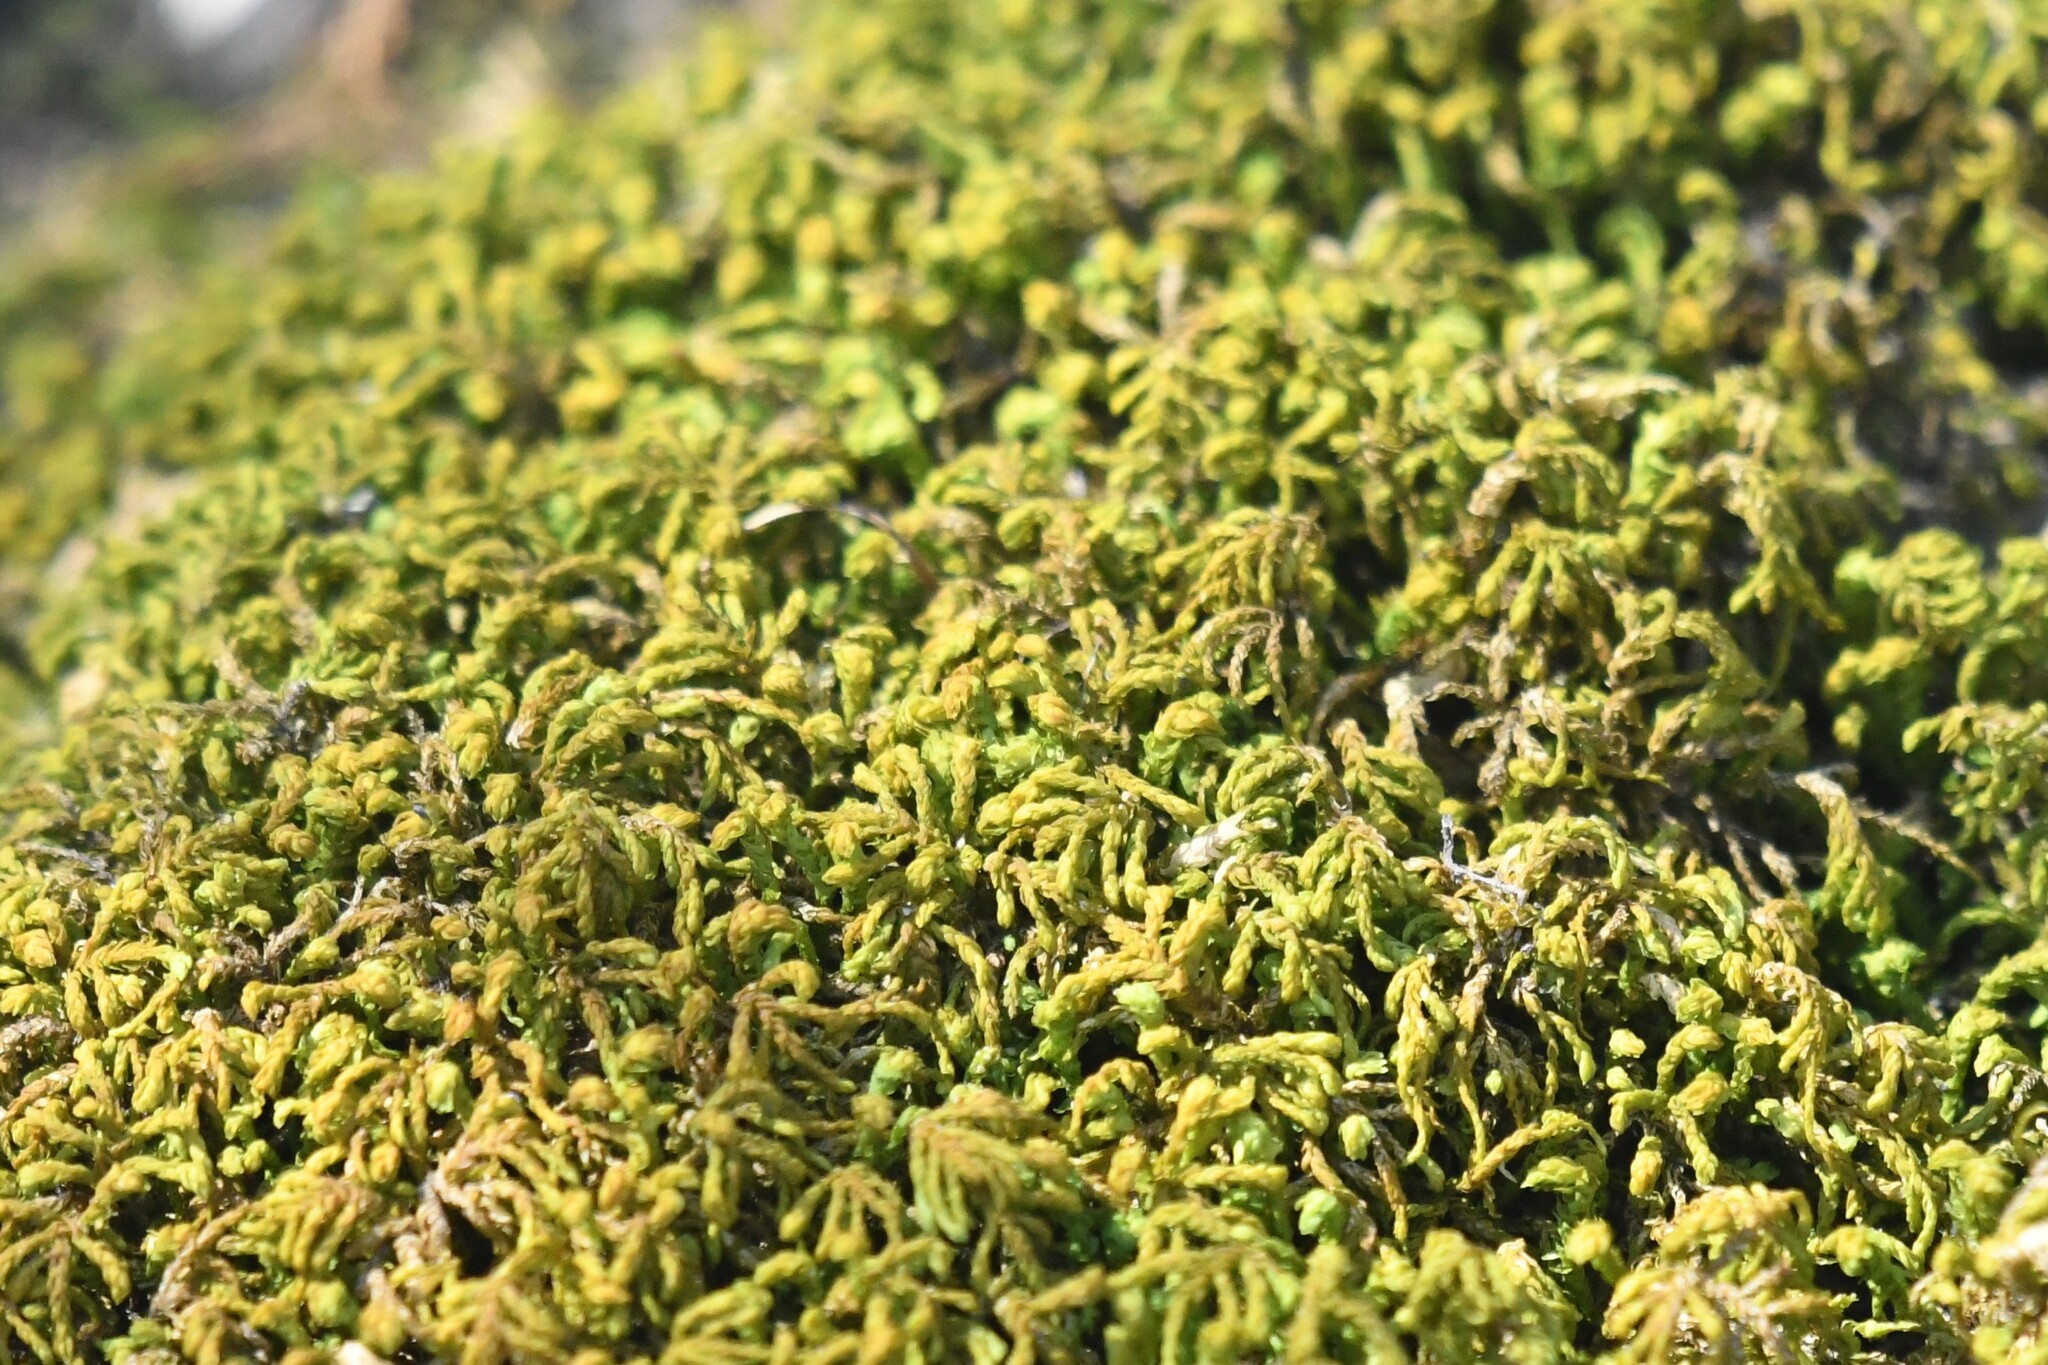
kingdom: Plantae
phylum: Bryophyta
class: Bryopsida
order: Hypnales
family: Neckeraceae
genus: Pseudanomodon
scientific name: Pseudanomodon attenuatus
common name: Tree-skirt moss
